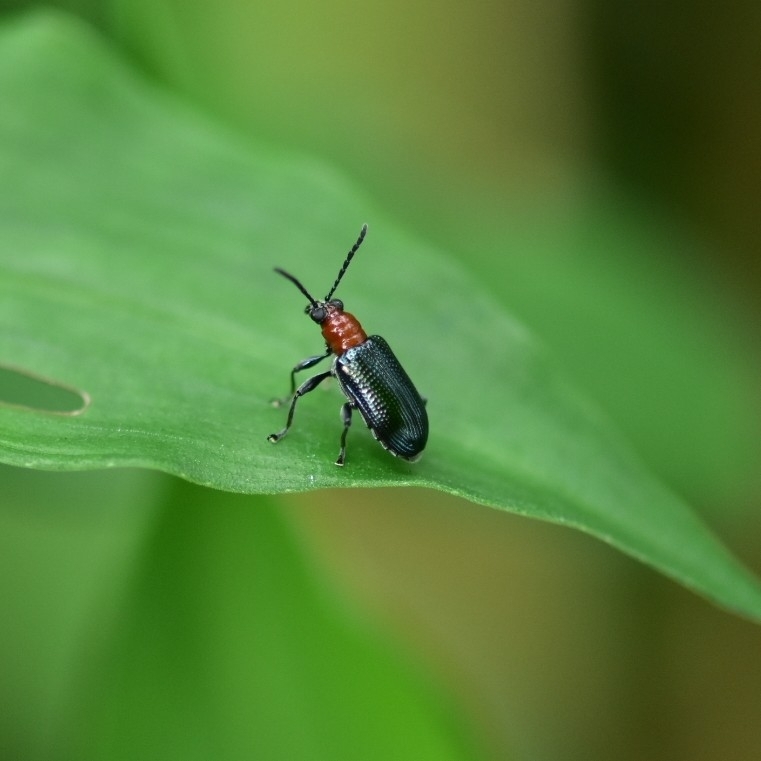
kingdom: Animalia
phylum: Arthropoda
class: Insecta
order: Coleoptera
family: Chrysomelidae
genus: Lema
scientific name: Lema praeusta
